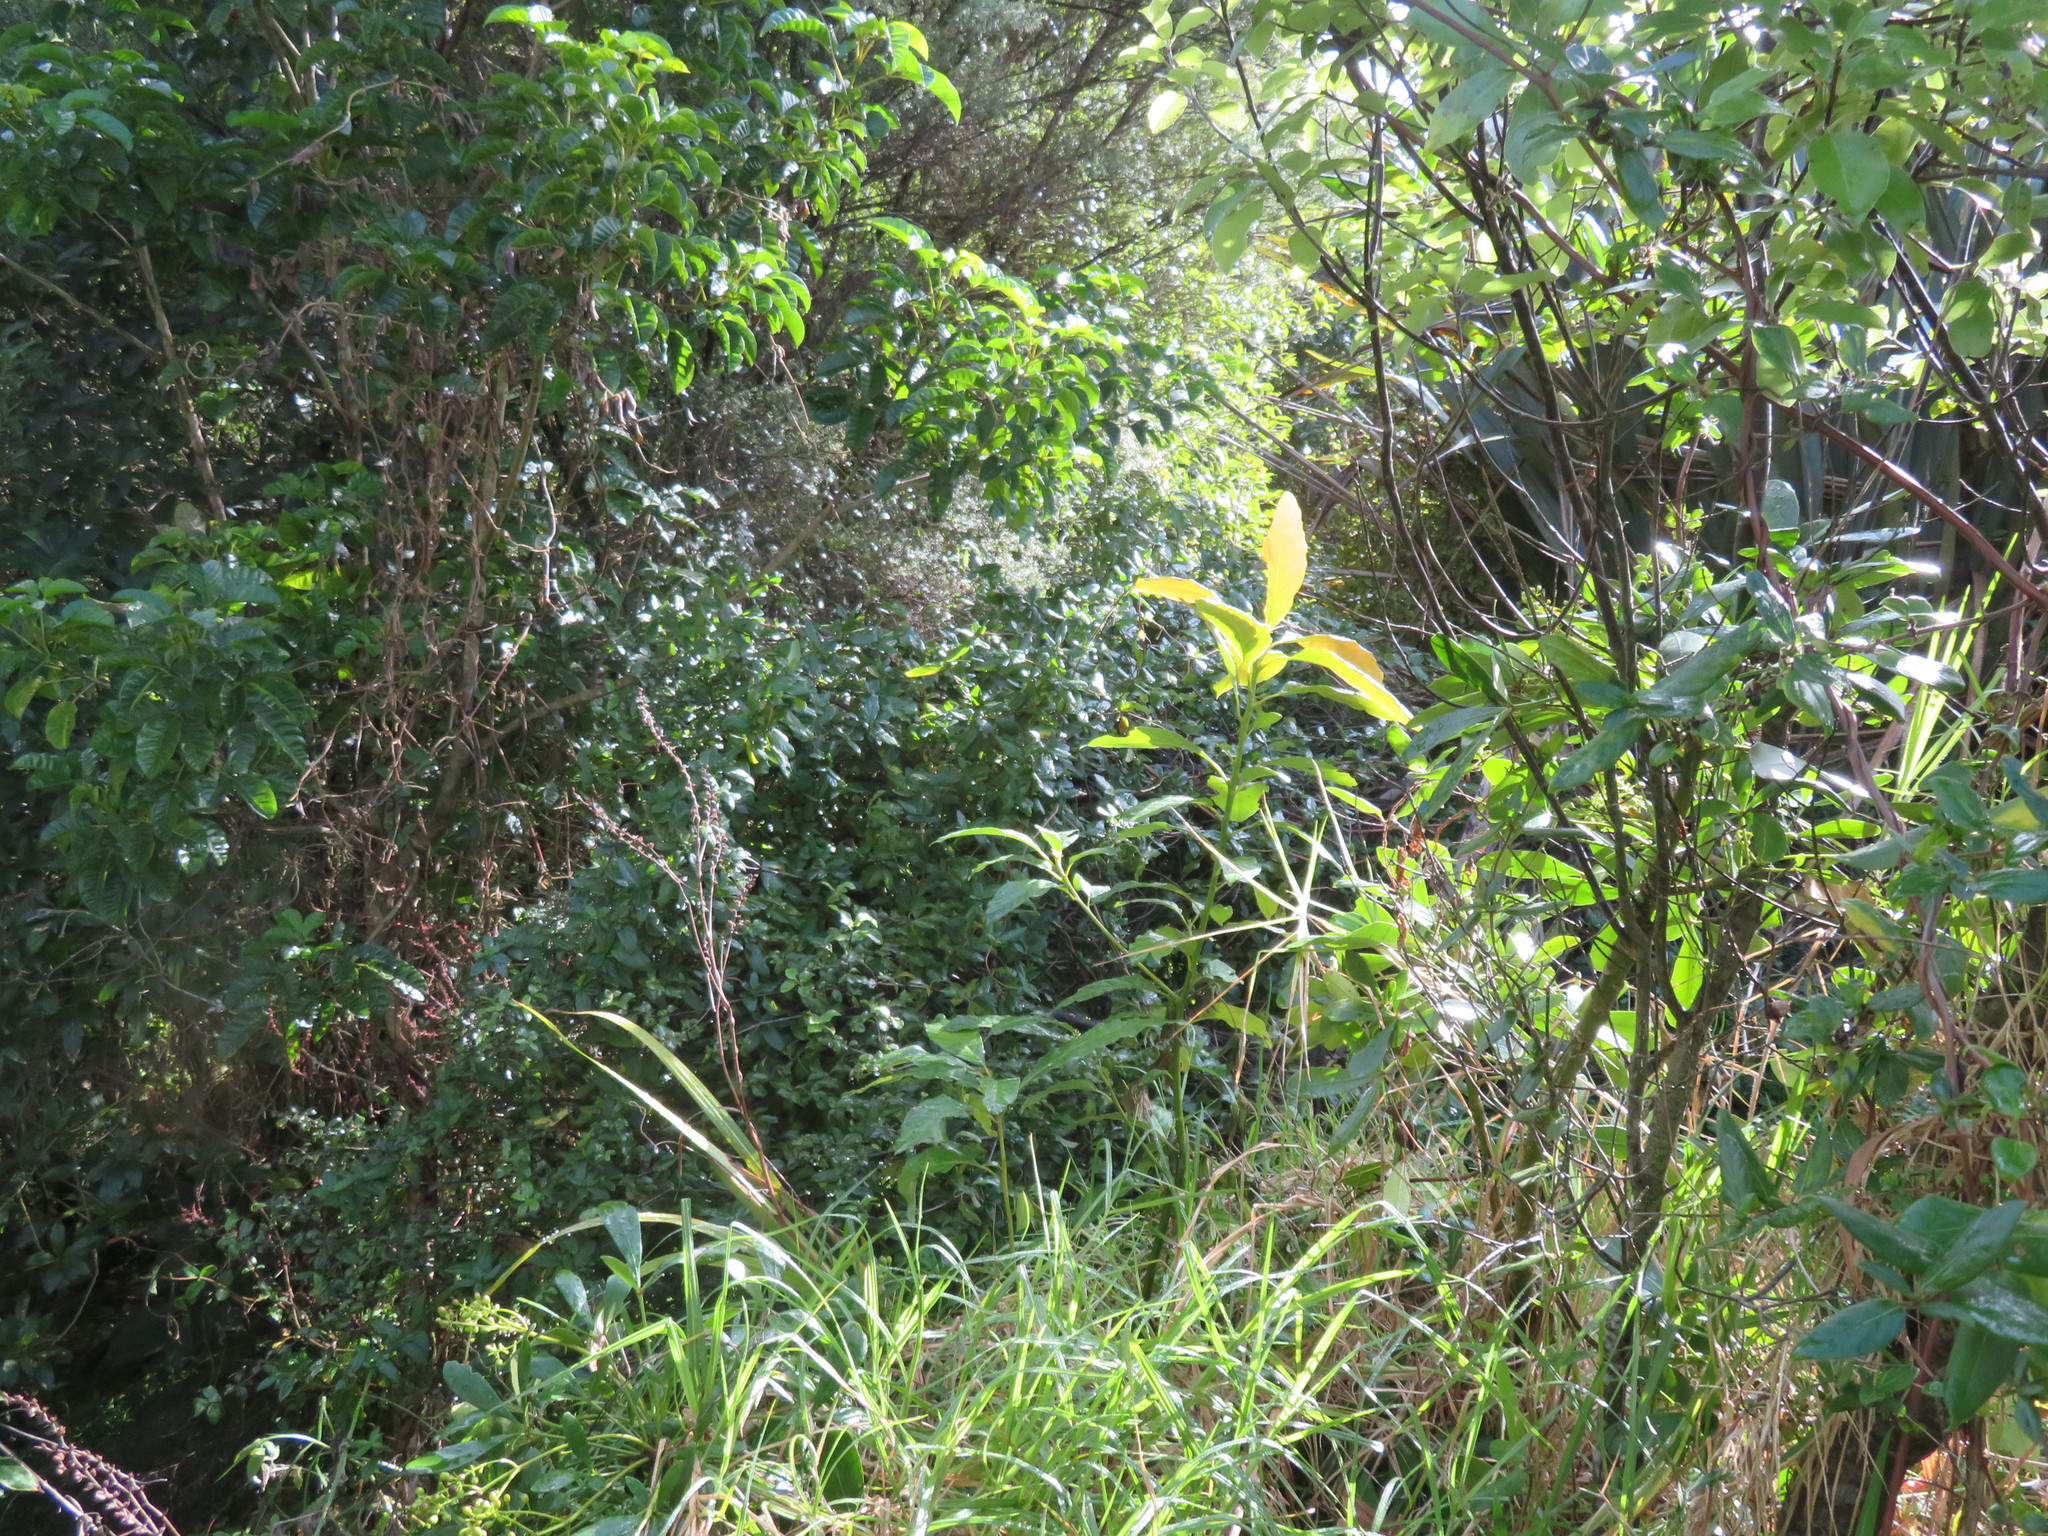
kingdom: Plantae
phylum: Tracheophyta
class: Magnoliopsida
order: Lamiales
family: Lamiaceae
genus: Vitex
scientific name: Vitex lucens
